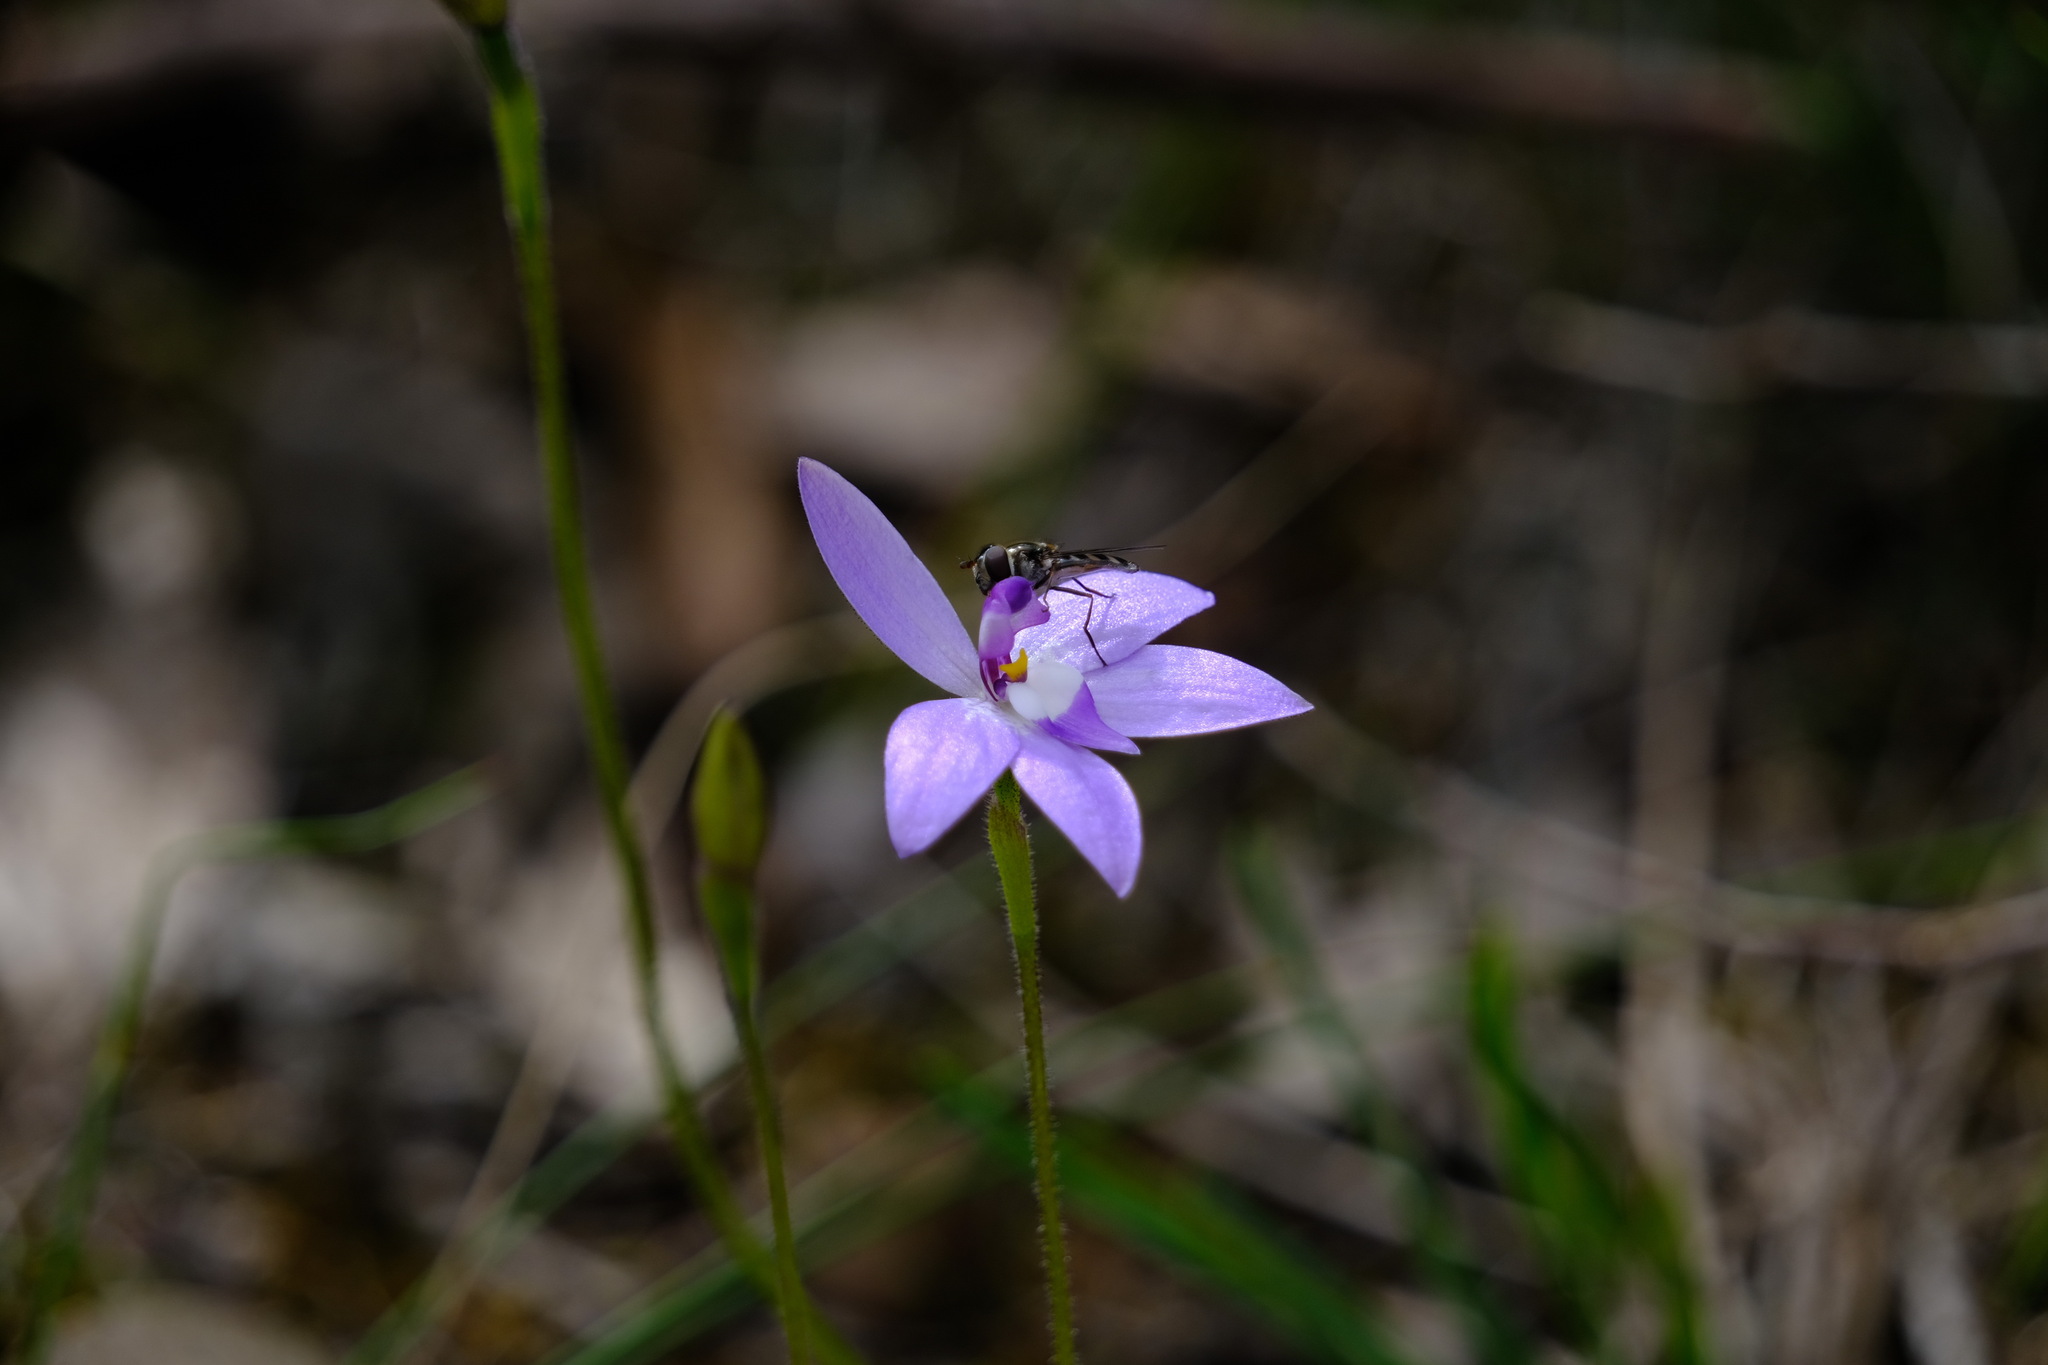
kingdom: Plantae
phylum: Tracheophyta
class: Liliopsida
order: Asparagales
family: Orchidaceae
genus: Caladenia
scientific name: Caladenia major
